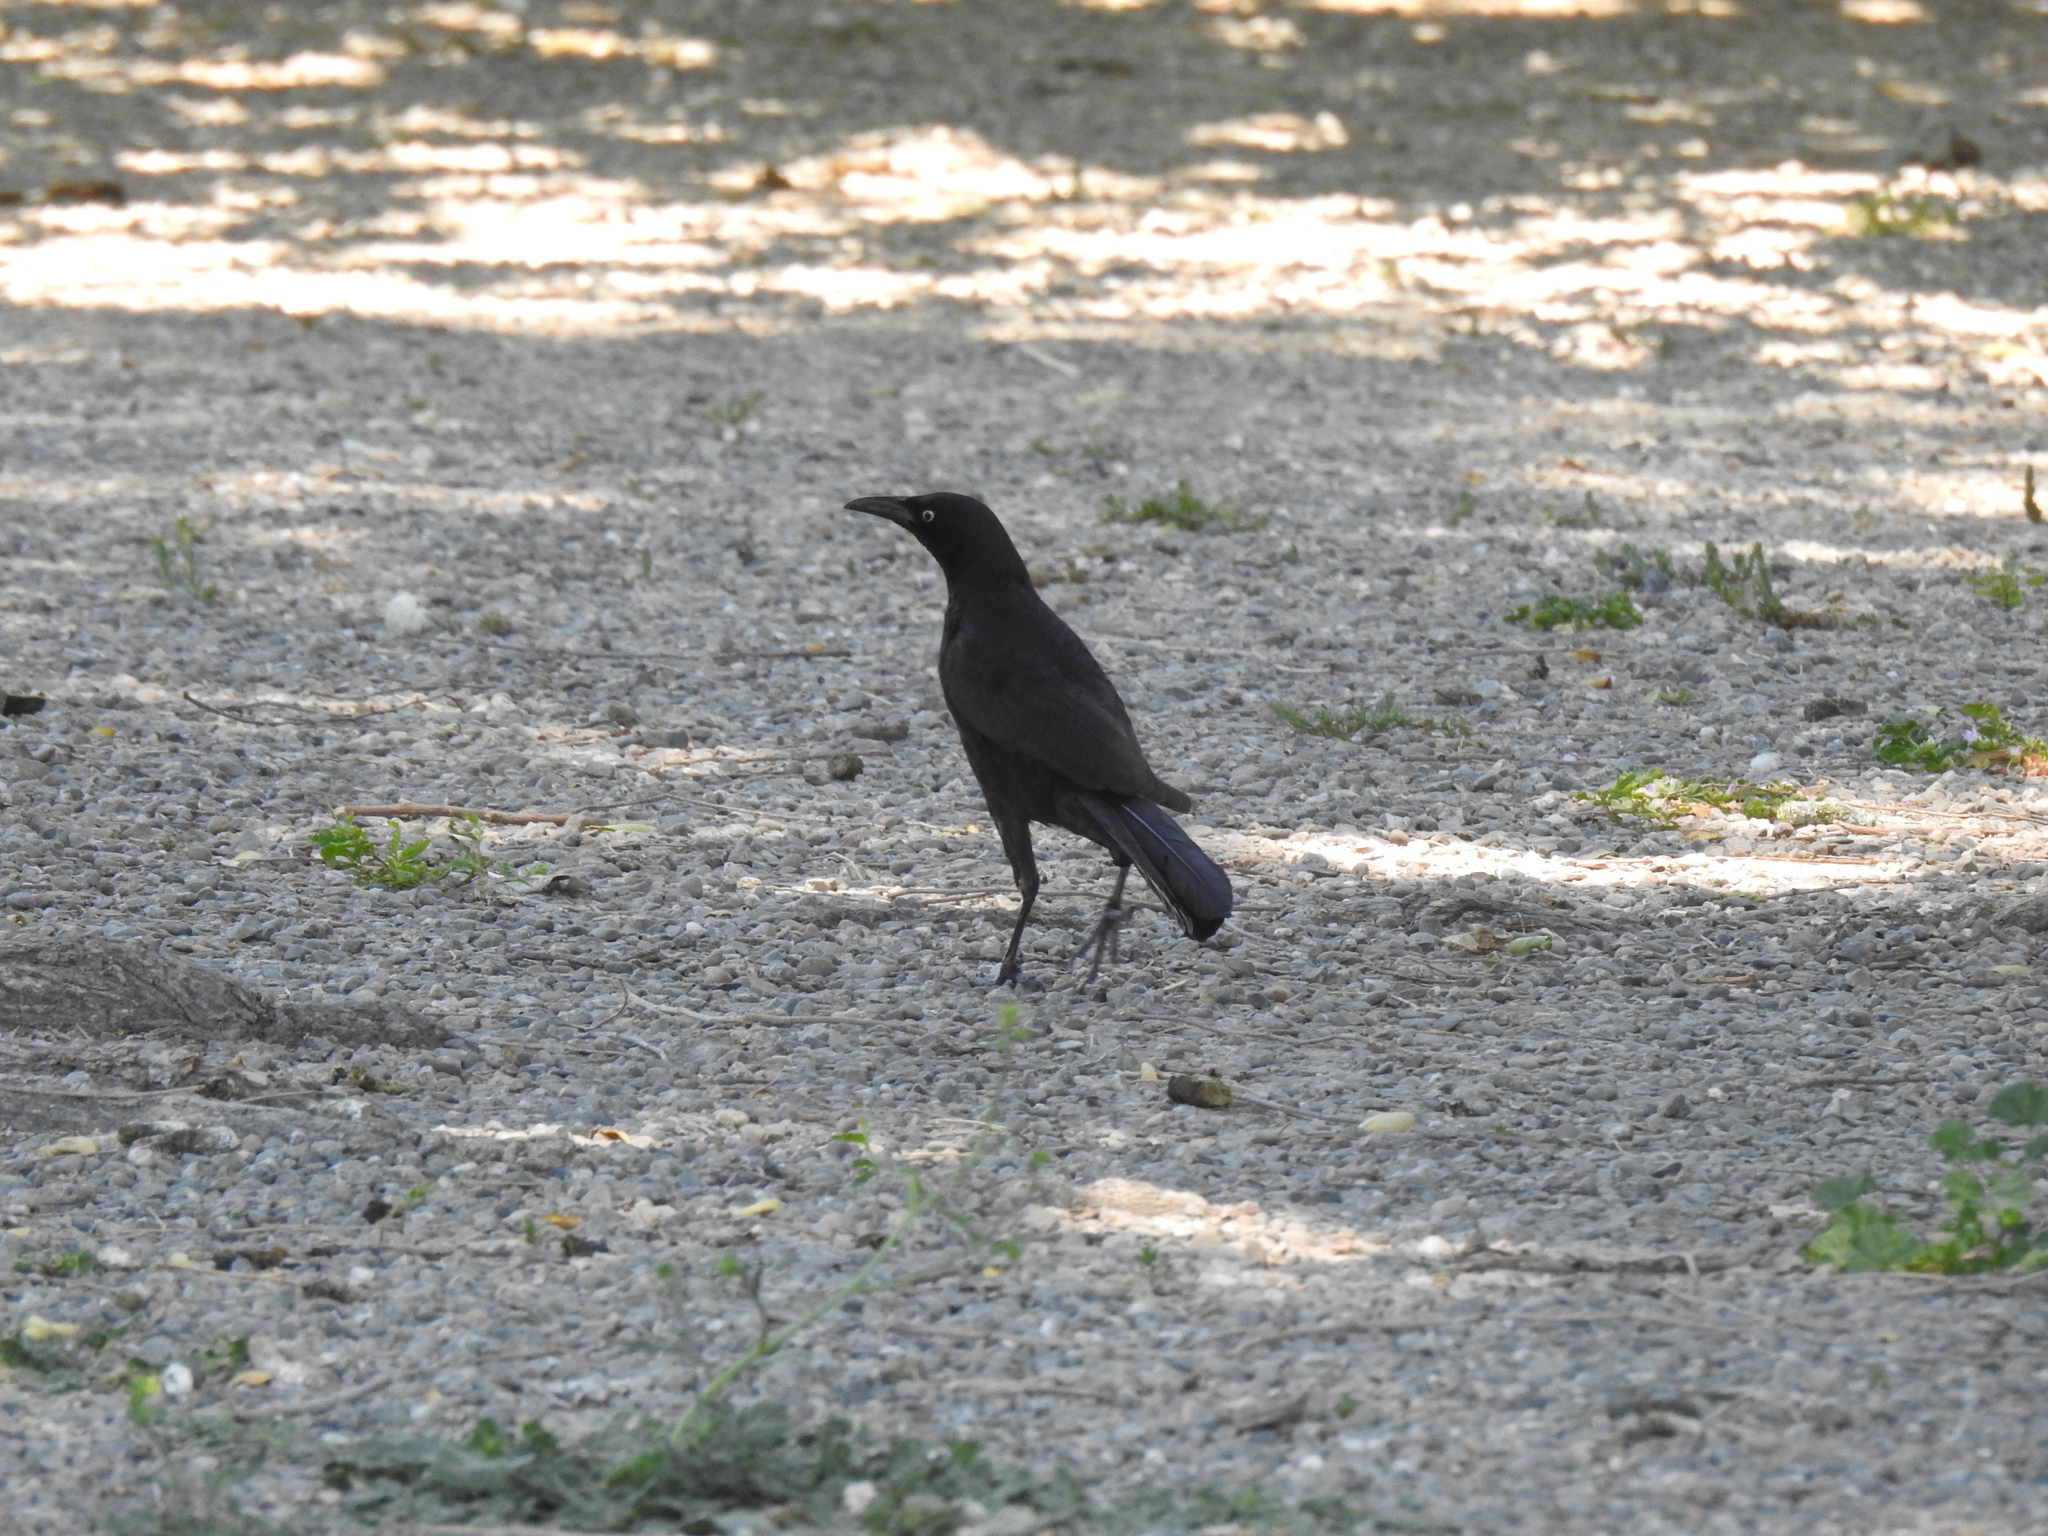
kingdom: Animalia
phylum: Chordata
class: Aves
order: Passeriformes
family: Icteridae
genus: Quiscalus
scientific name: Quiscalus mexicanus
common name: Great-tailed grackle
